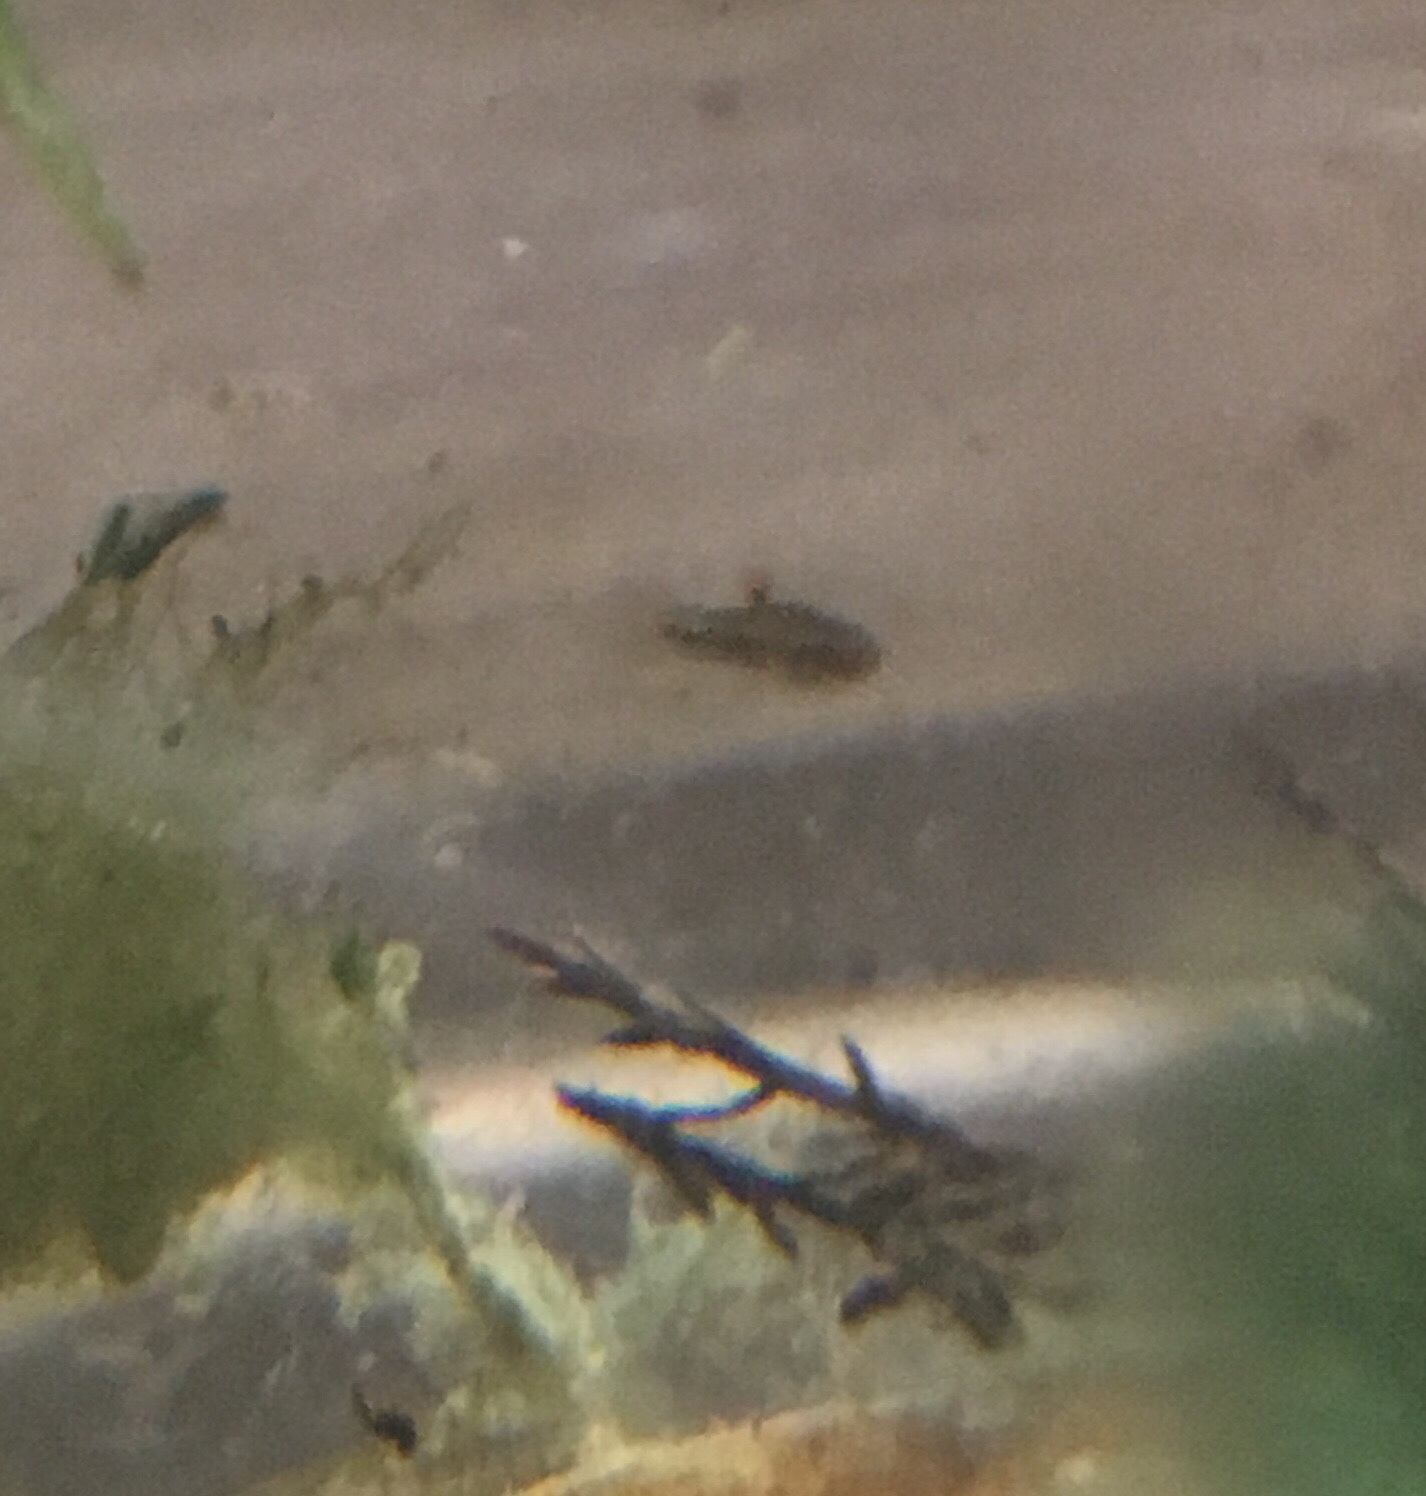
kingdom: Animalia
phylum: Chordata
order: Cyprinodontiformes
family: Poeciliidae
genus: Heterandria
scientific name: Heterandria formosa
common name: Least killifish
